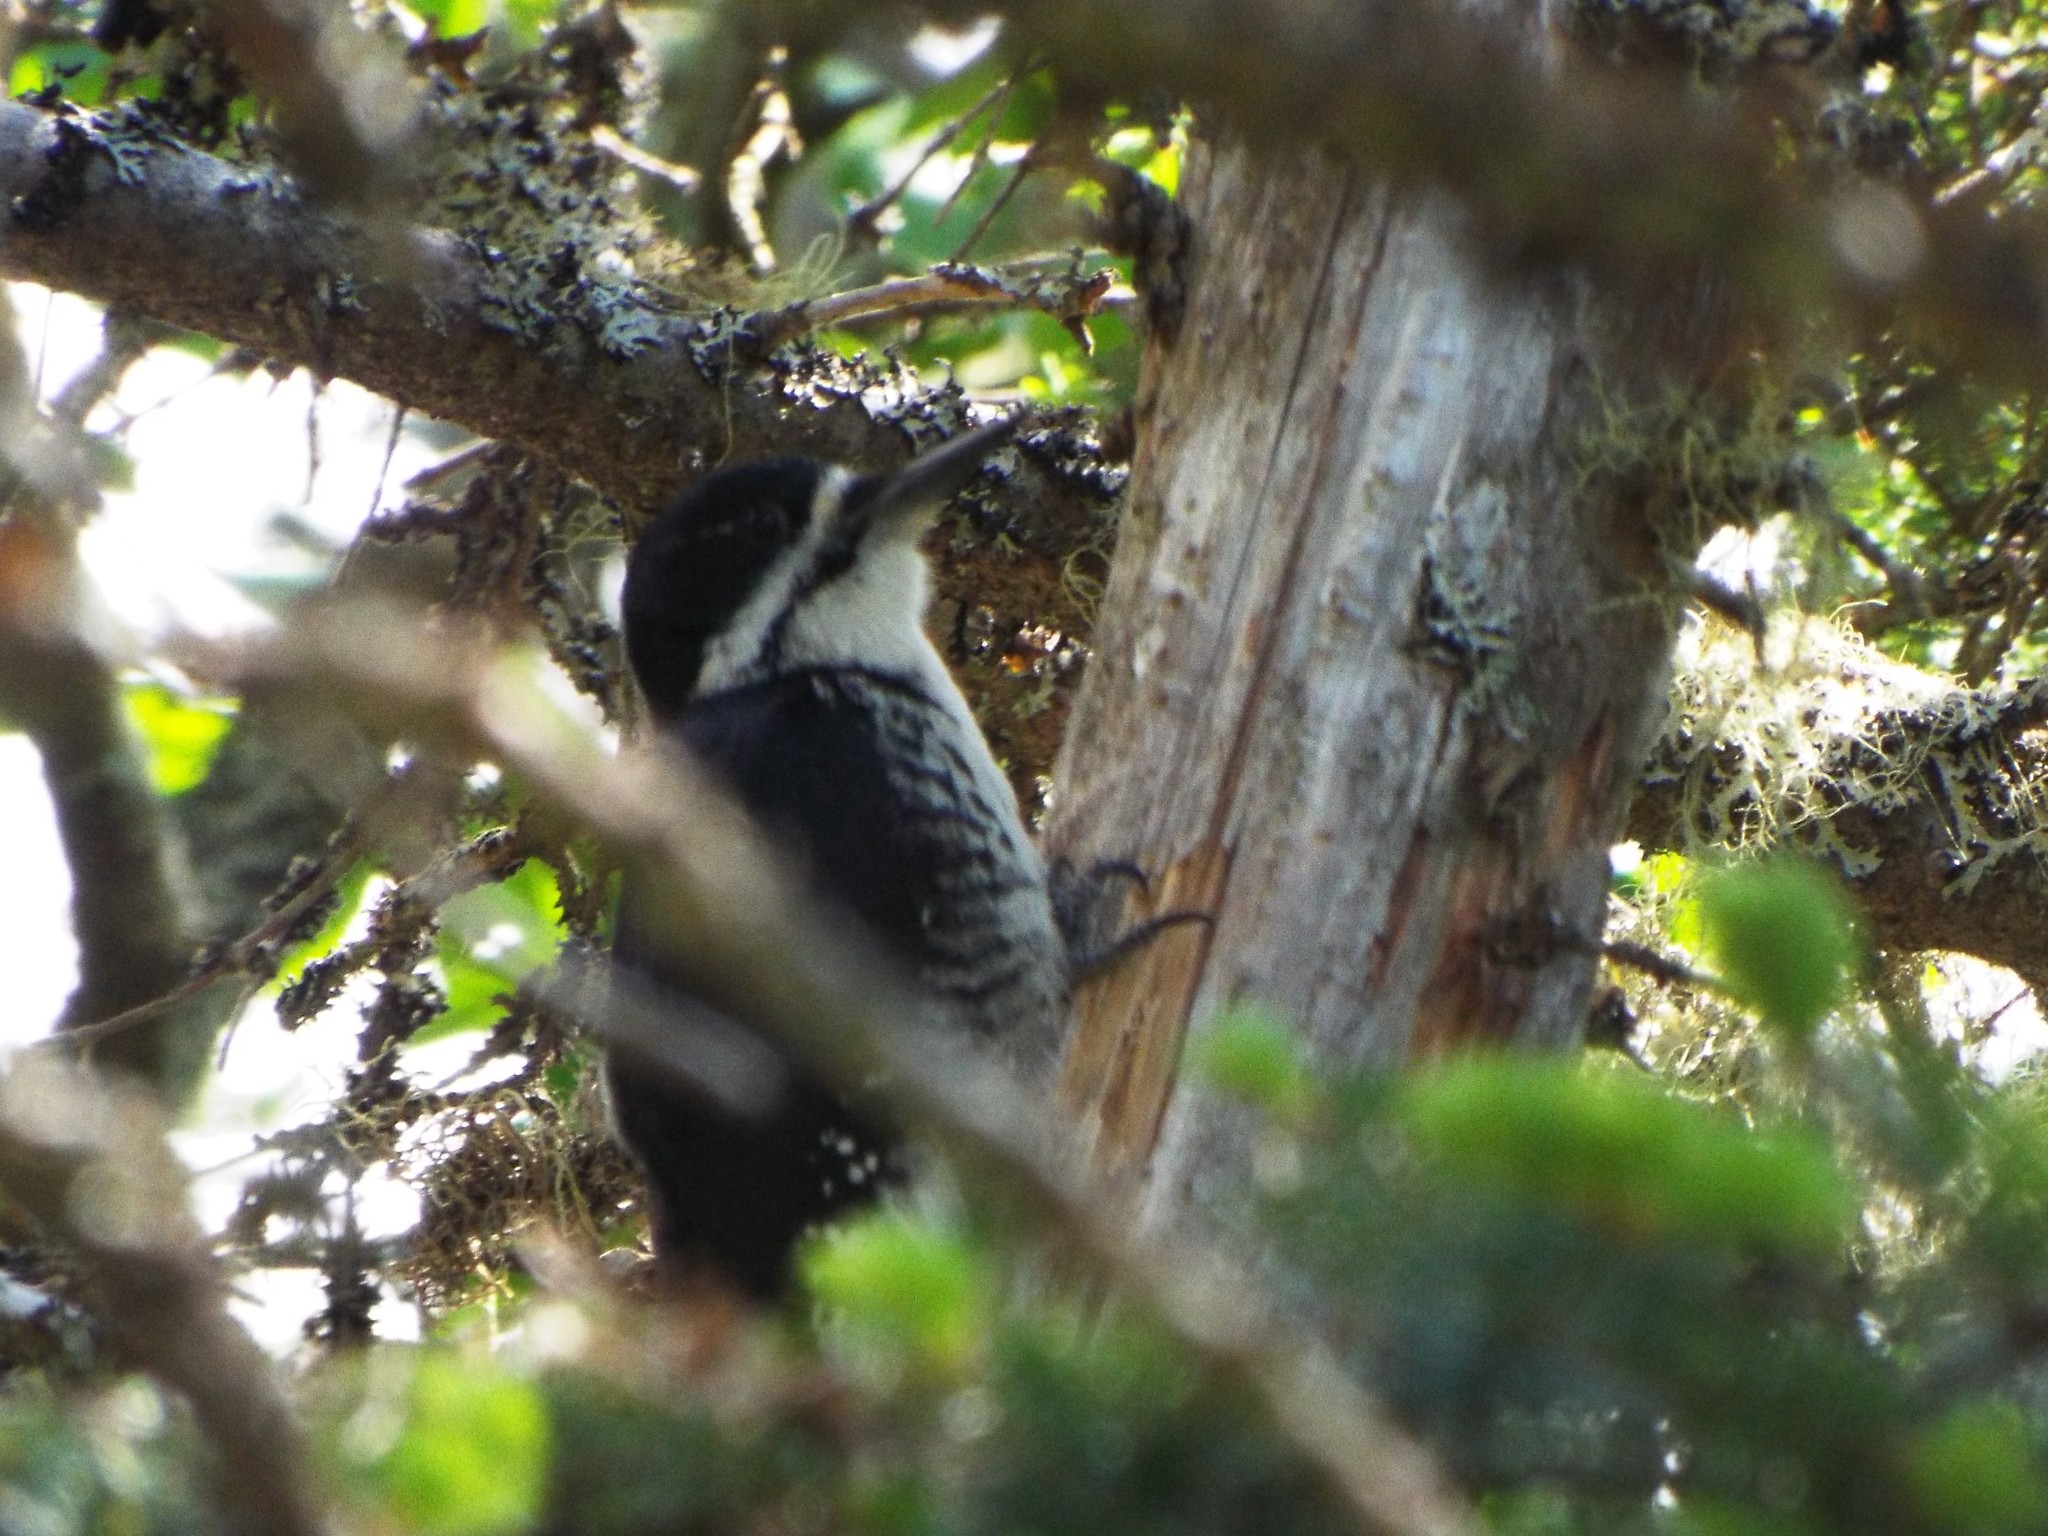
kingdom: Animalia
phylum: Chordata
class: Aves
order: Piciformes
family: Picidae
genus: Picoides
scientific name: Picoides arcticus
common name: Black-backed woodpecker
